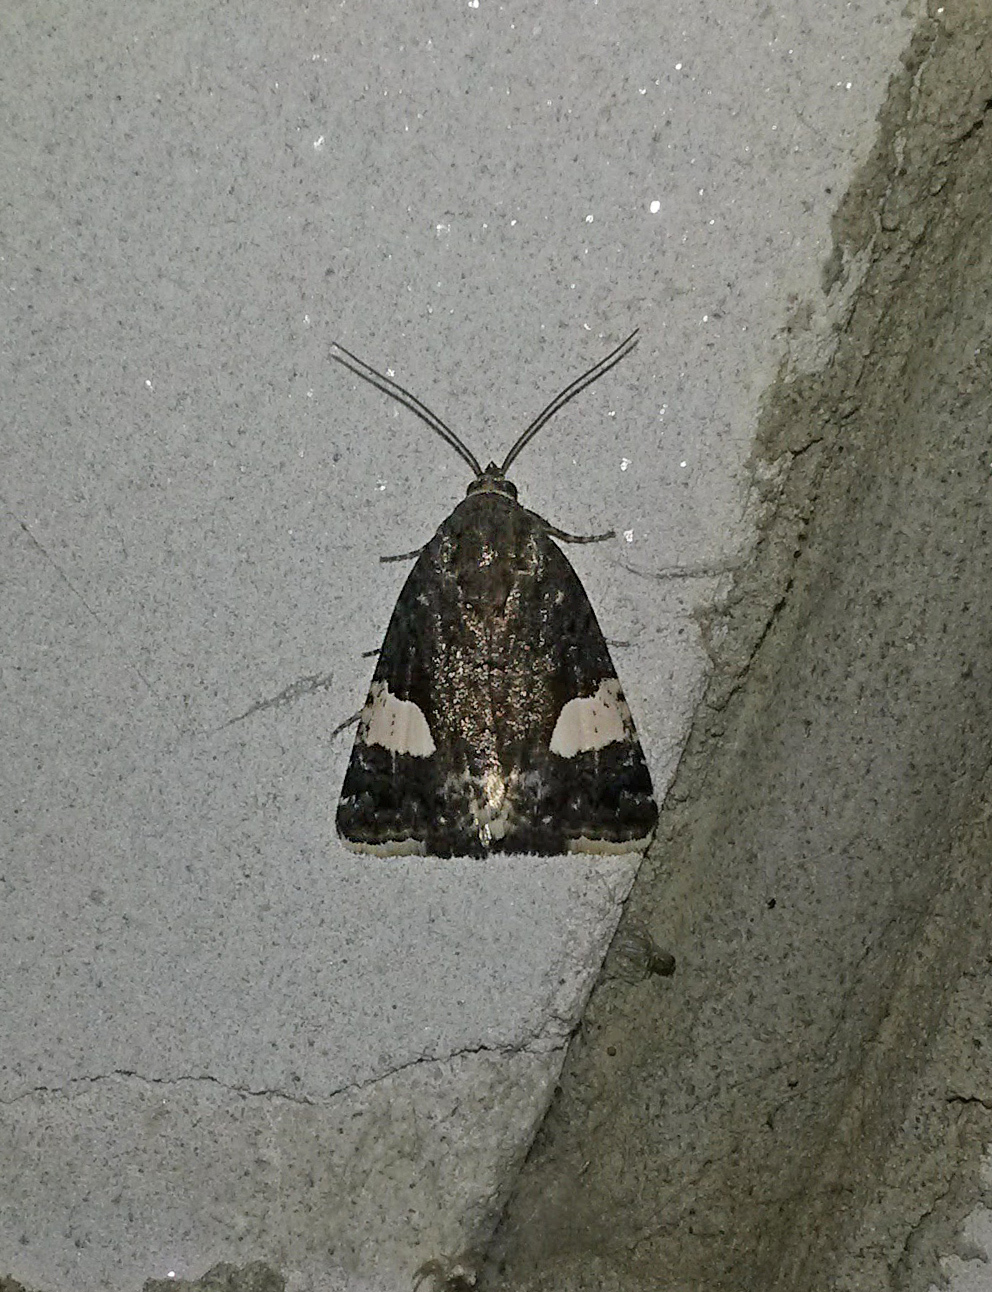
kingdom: Animalia
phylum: Arthropoda
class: Insecta
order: Lepidoptera
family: Erebidae
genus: Tyta
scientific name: Tyta luctuosa
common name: Four-spotted
